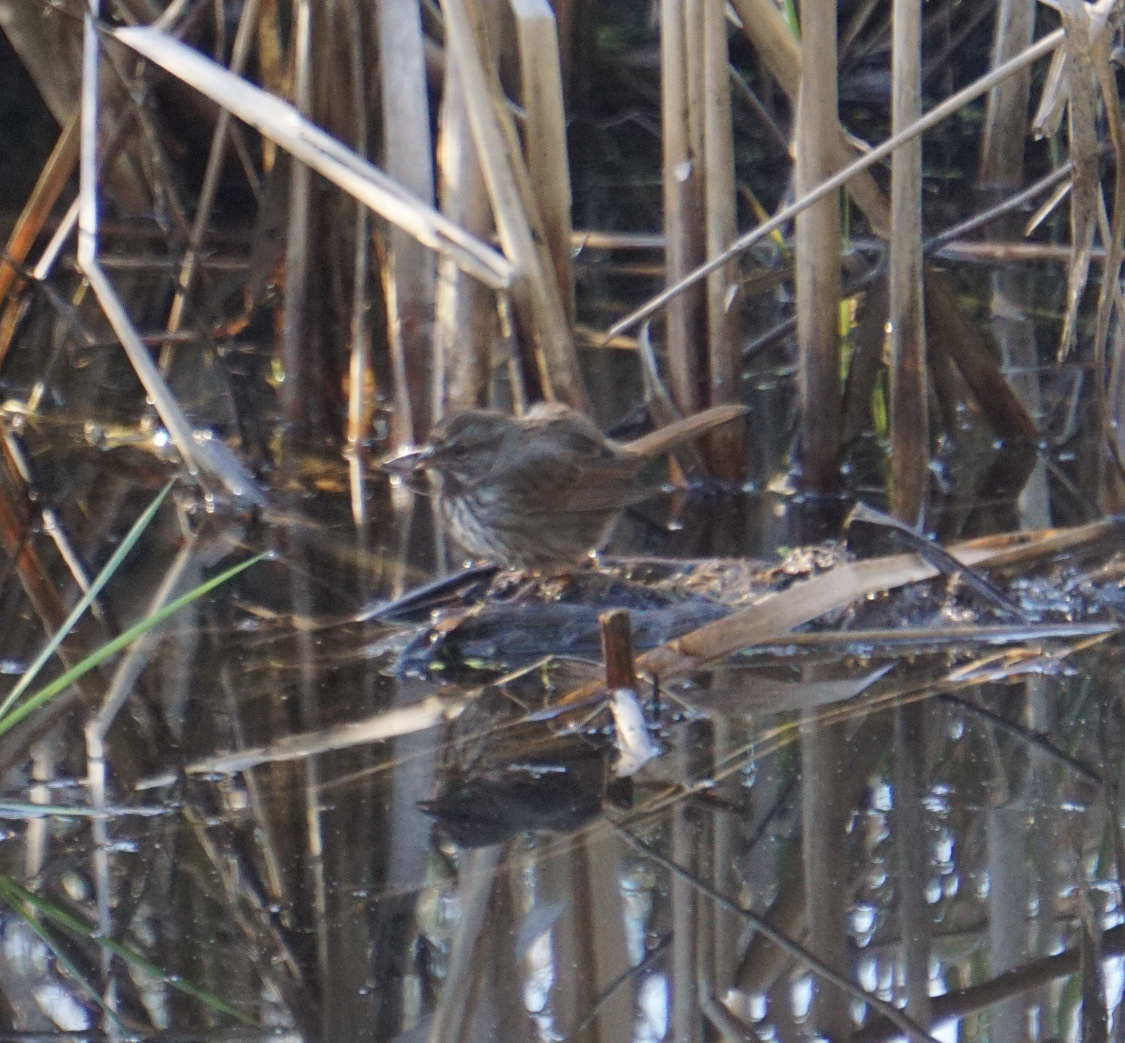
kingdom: Animalia
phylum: Chordata
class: Aves
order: Passeriformes
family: Passerellidae
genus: Melospiza
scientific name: Melospiza melodia
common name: Song sparrow
